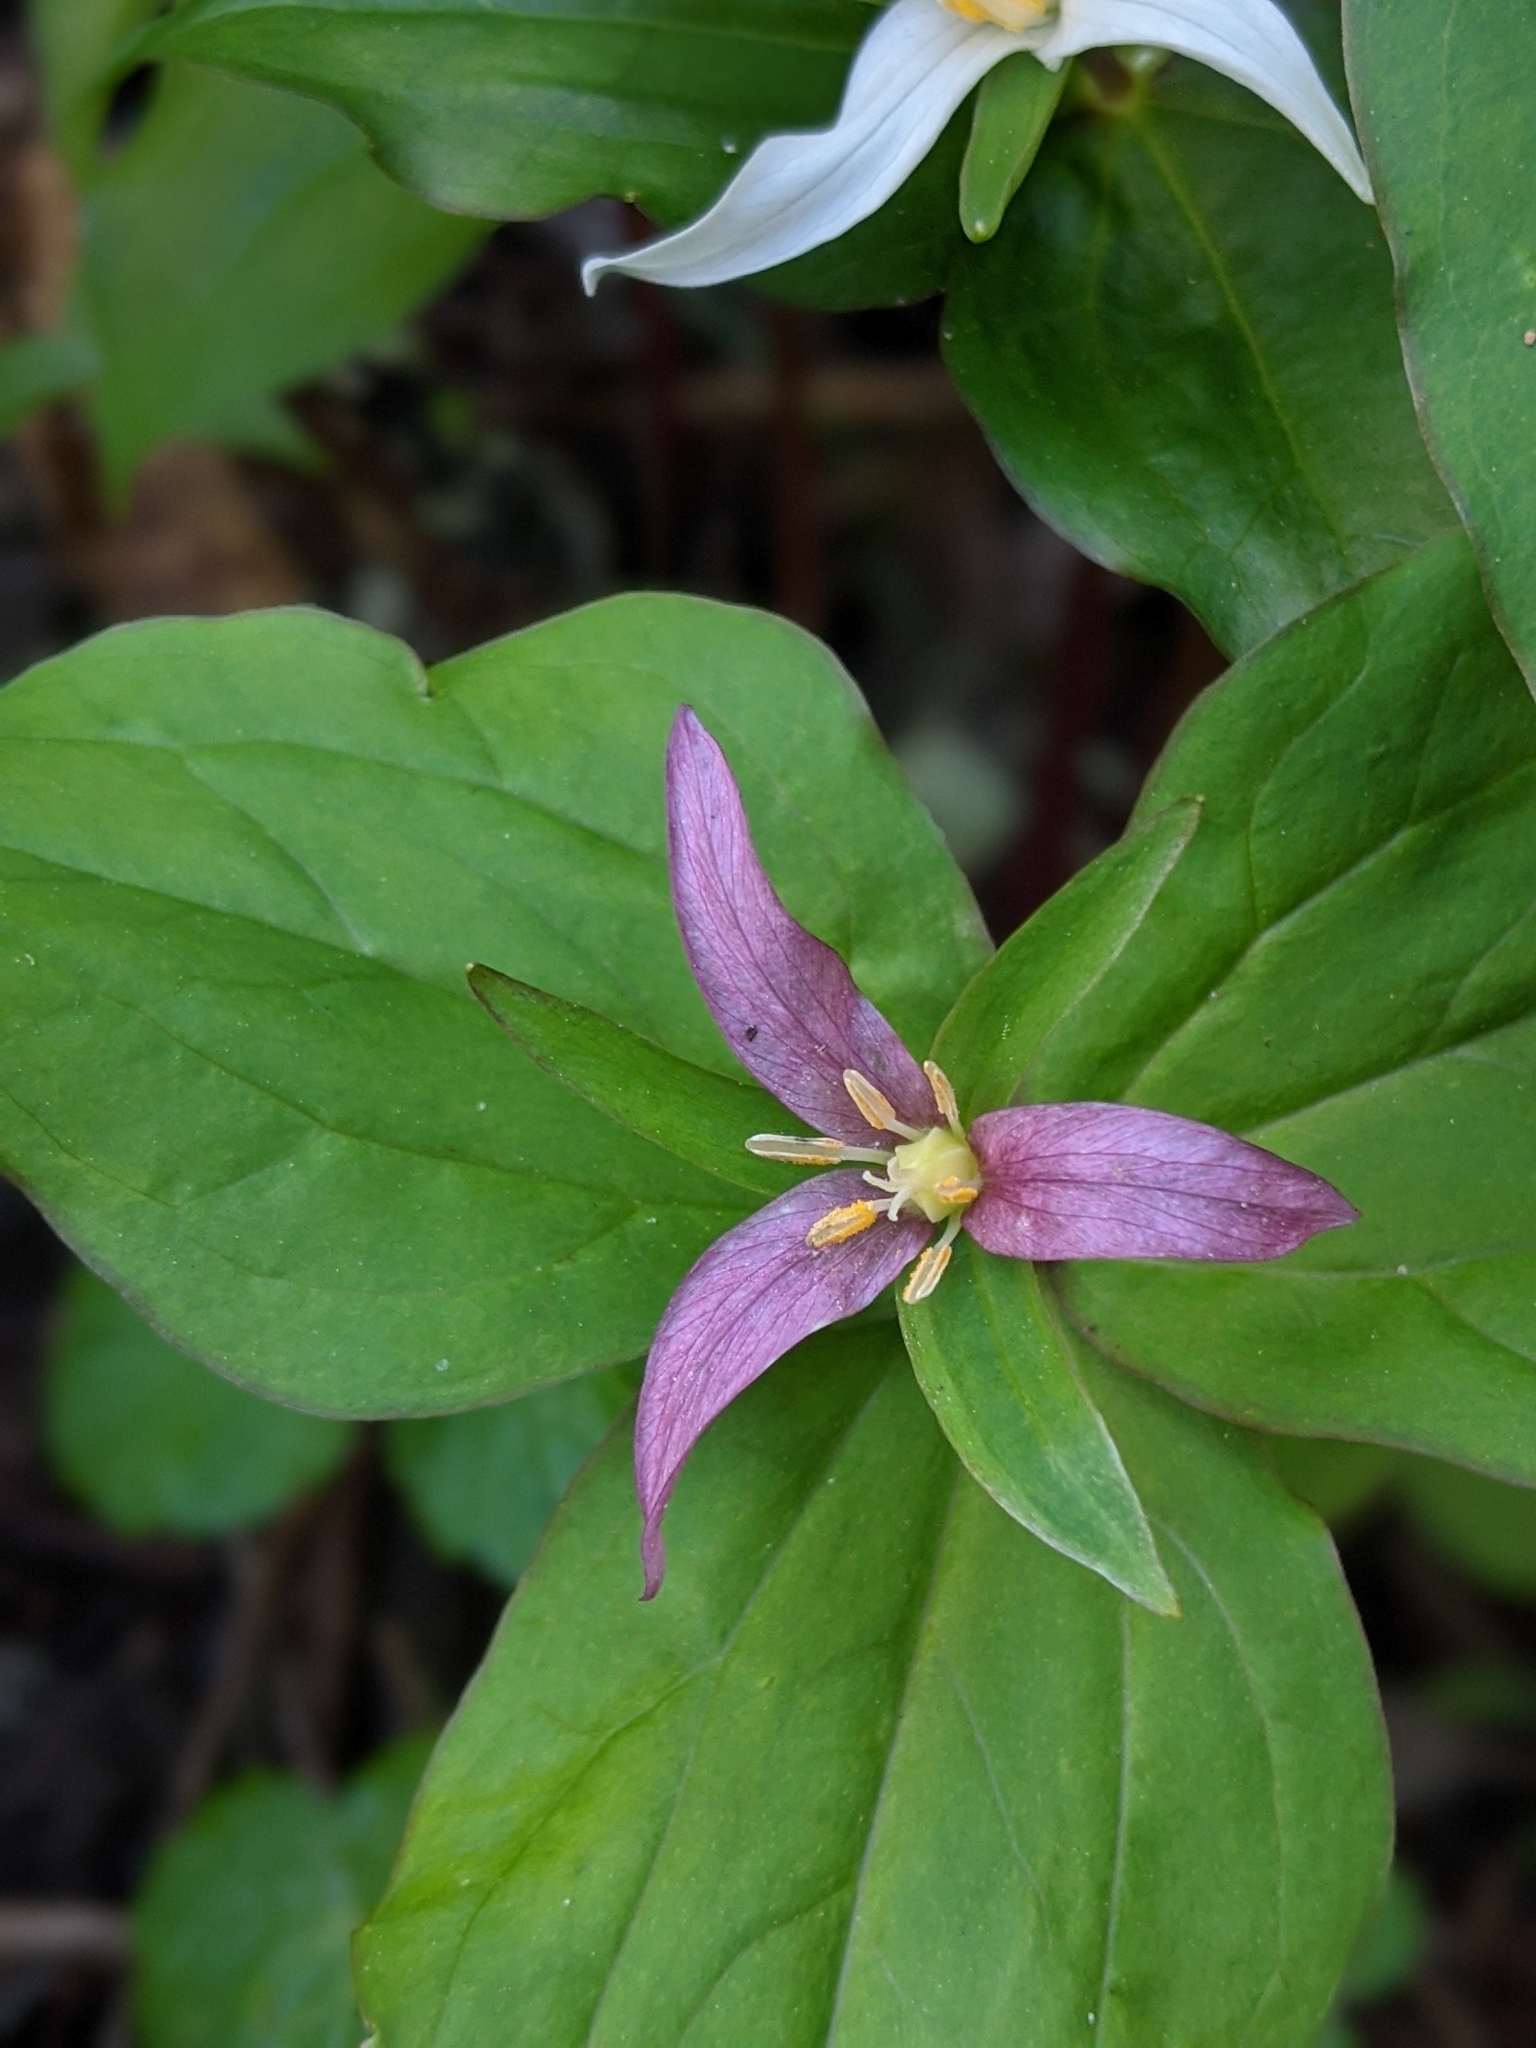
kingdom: Plantae
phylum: Tracheophyta
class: Liliopsida
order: Liliales
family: Melanthiaceae
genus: Trillium
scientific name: Trillium ovatum
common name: Pacific trillium
